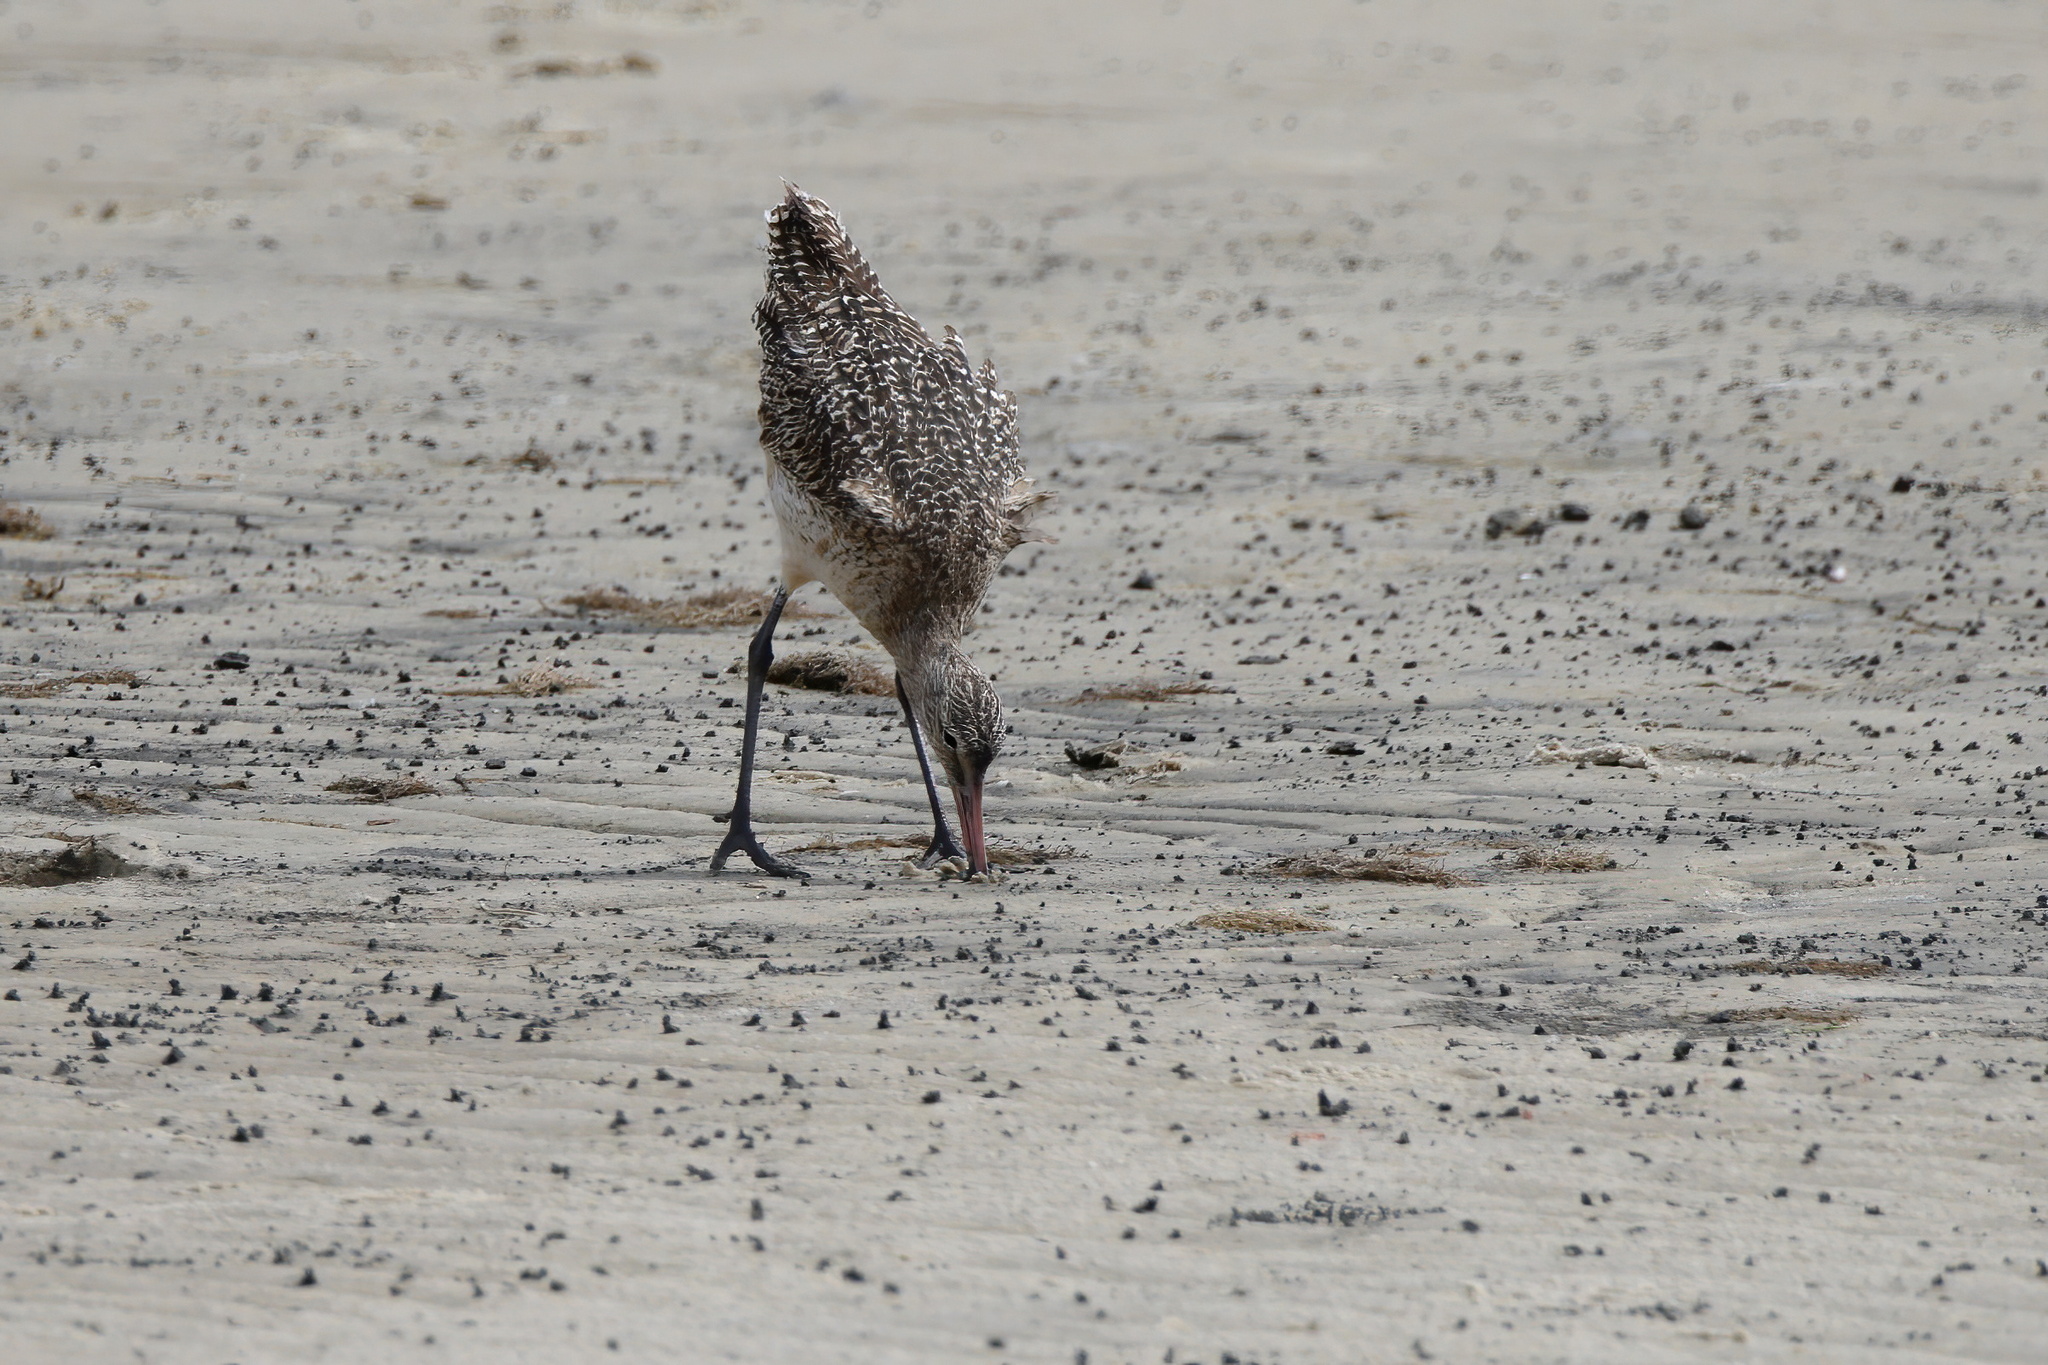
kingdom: Animalia
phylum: Chordata
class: Aves
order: Charadriiformes
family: Scolopacidae
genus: Limosa
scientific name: Limosa fedoa
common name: Marbled godwit
